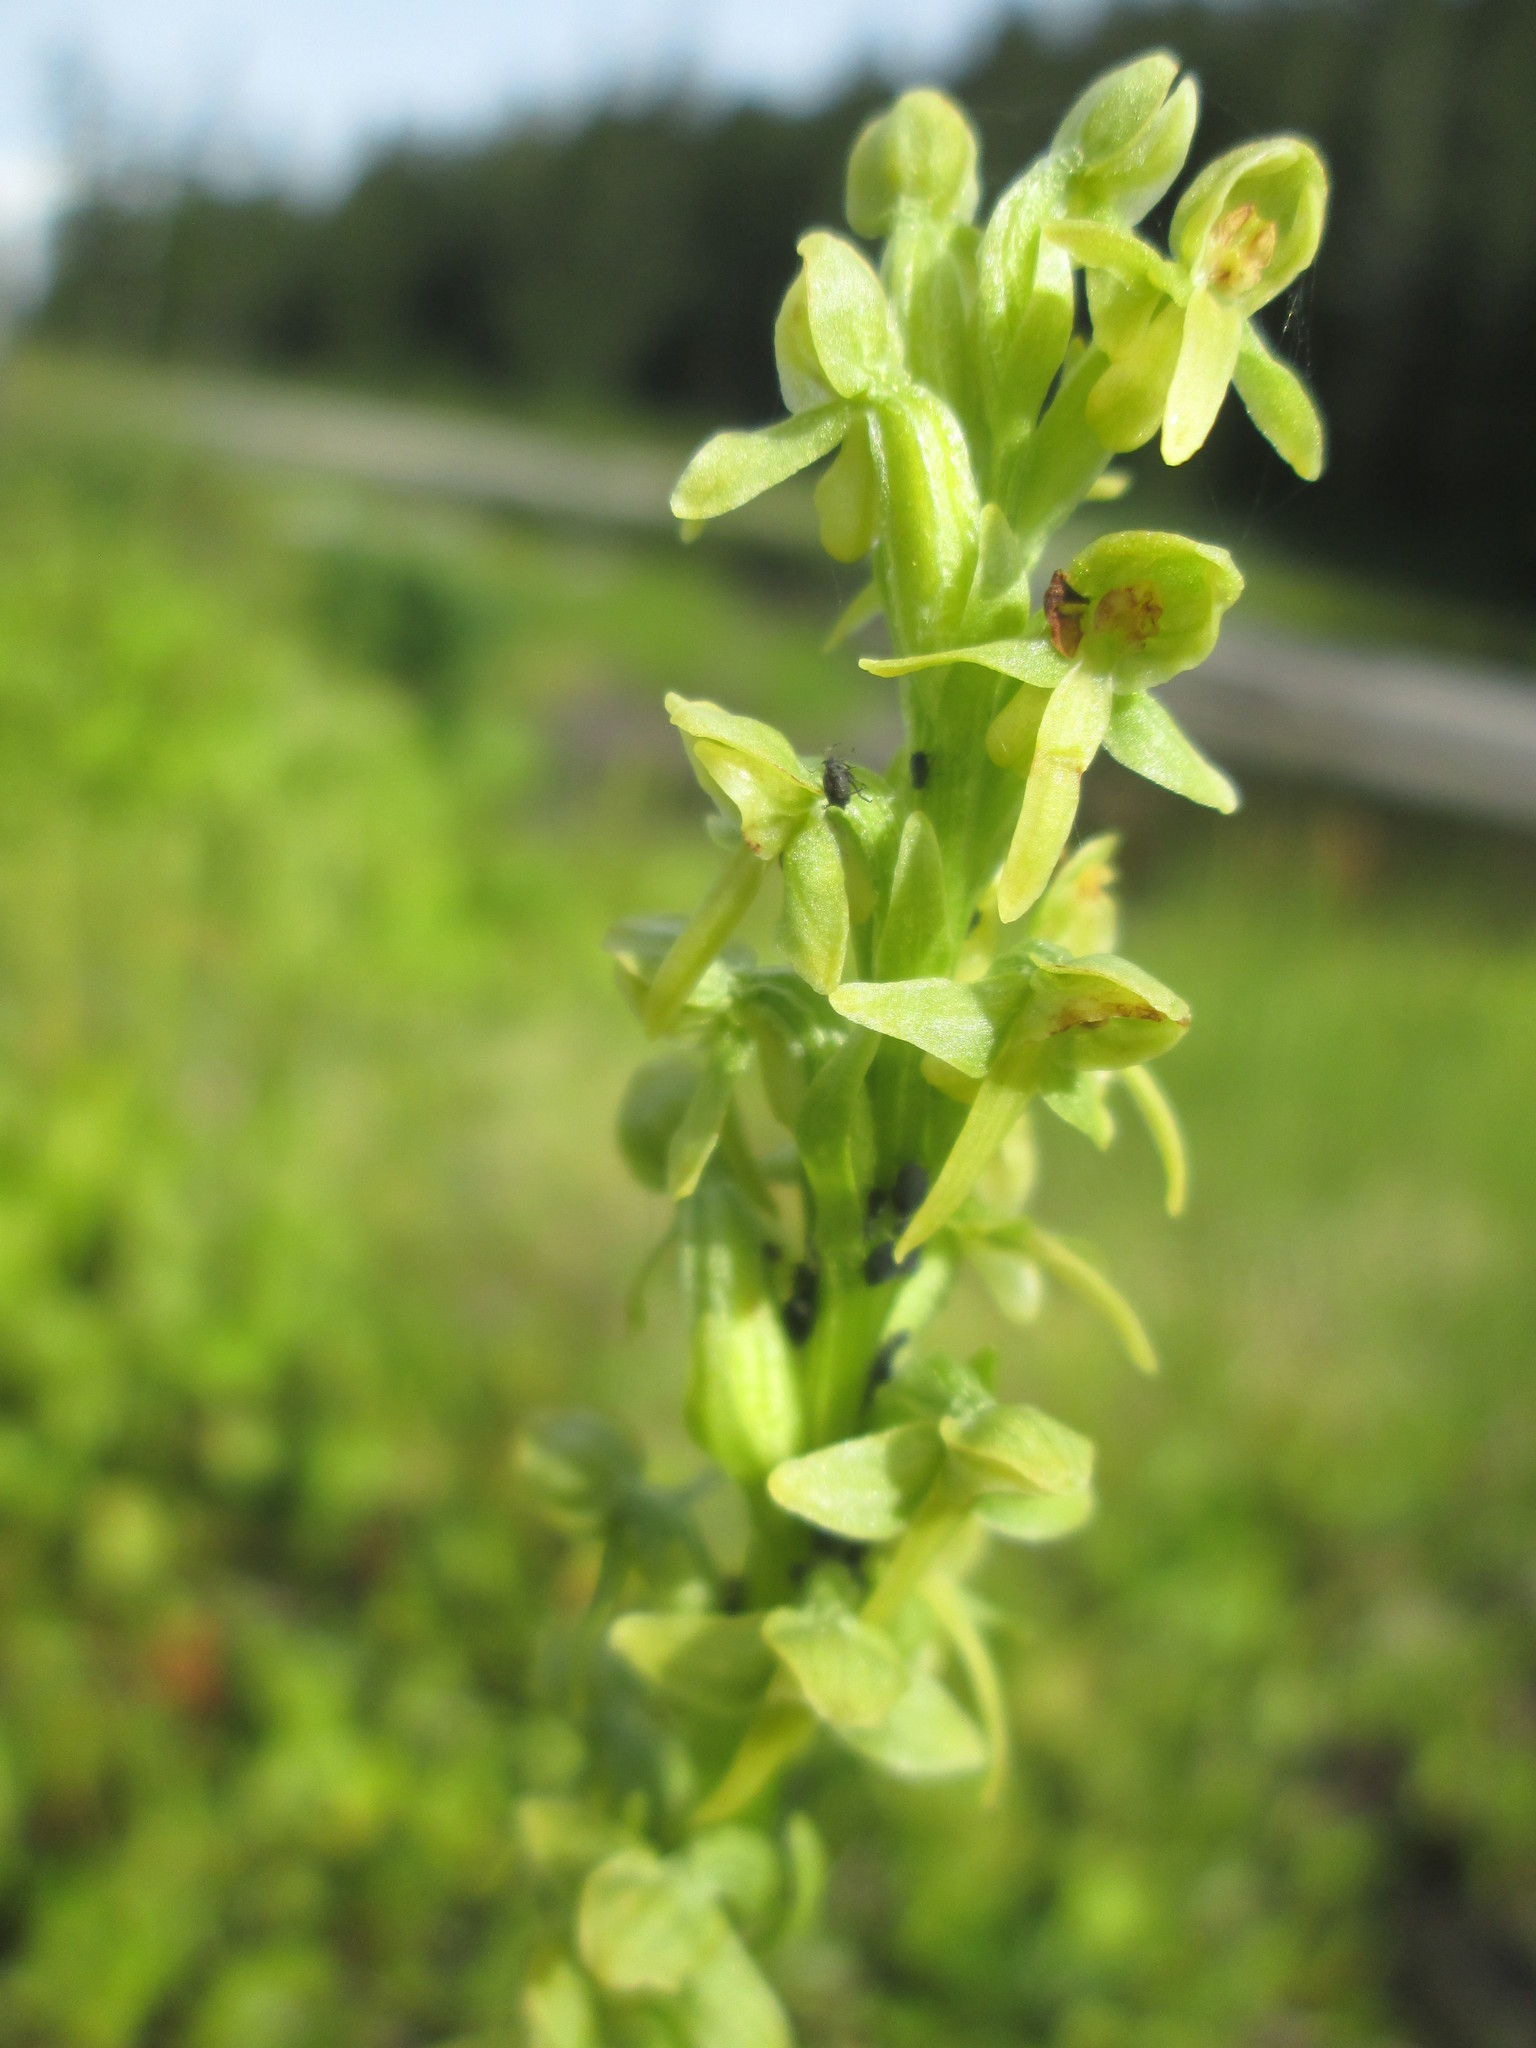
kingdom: Plantae
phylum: Tracheophyta
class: Liliopsida
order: Asparagales
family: Orchidaceae
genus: Platanthera
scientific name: Platanthera stricta
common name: Slender bog orchid
